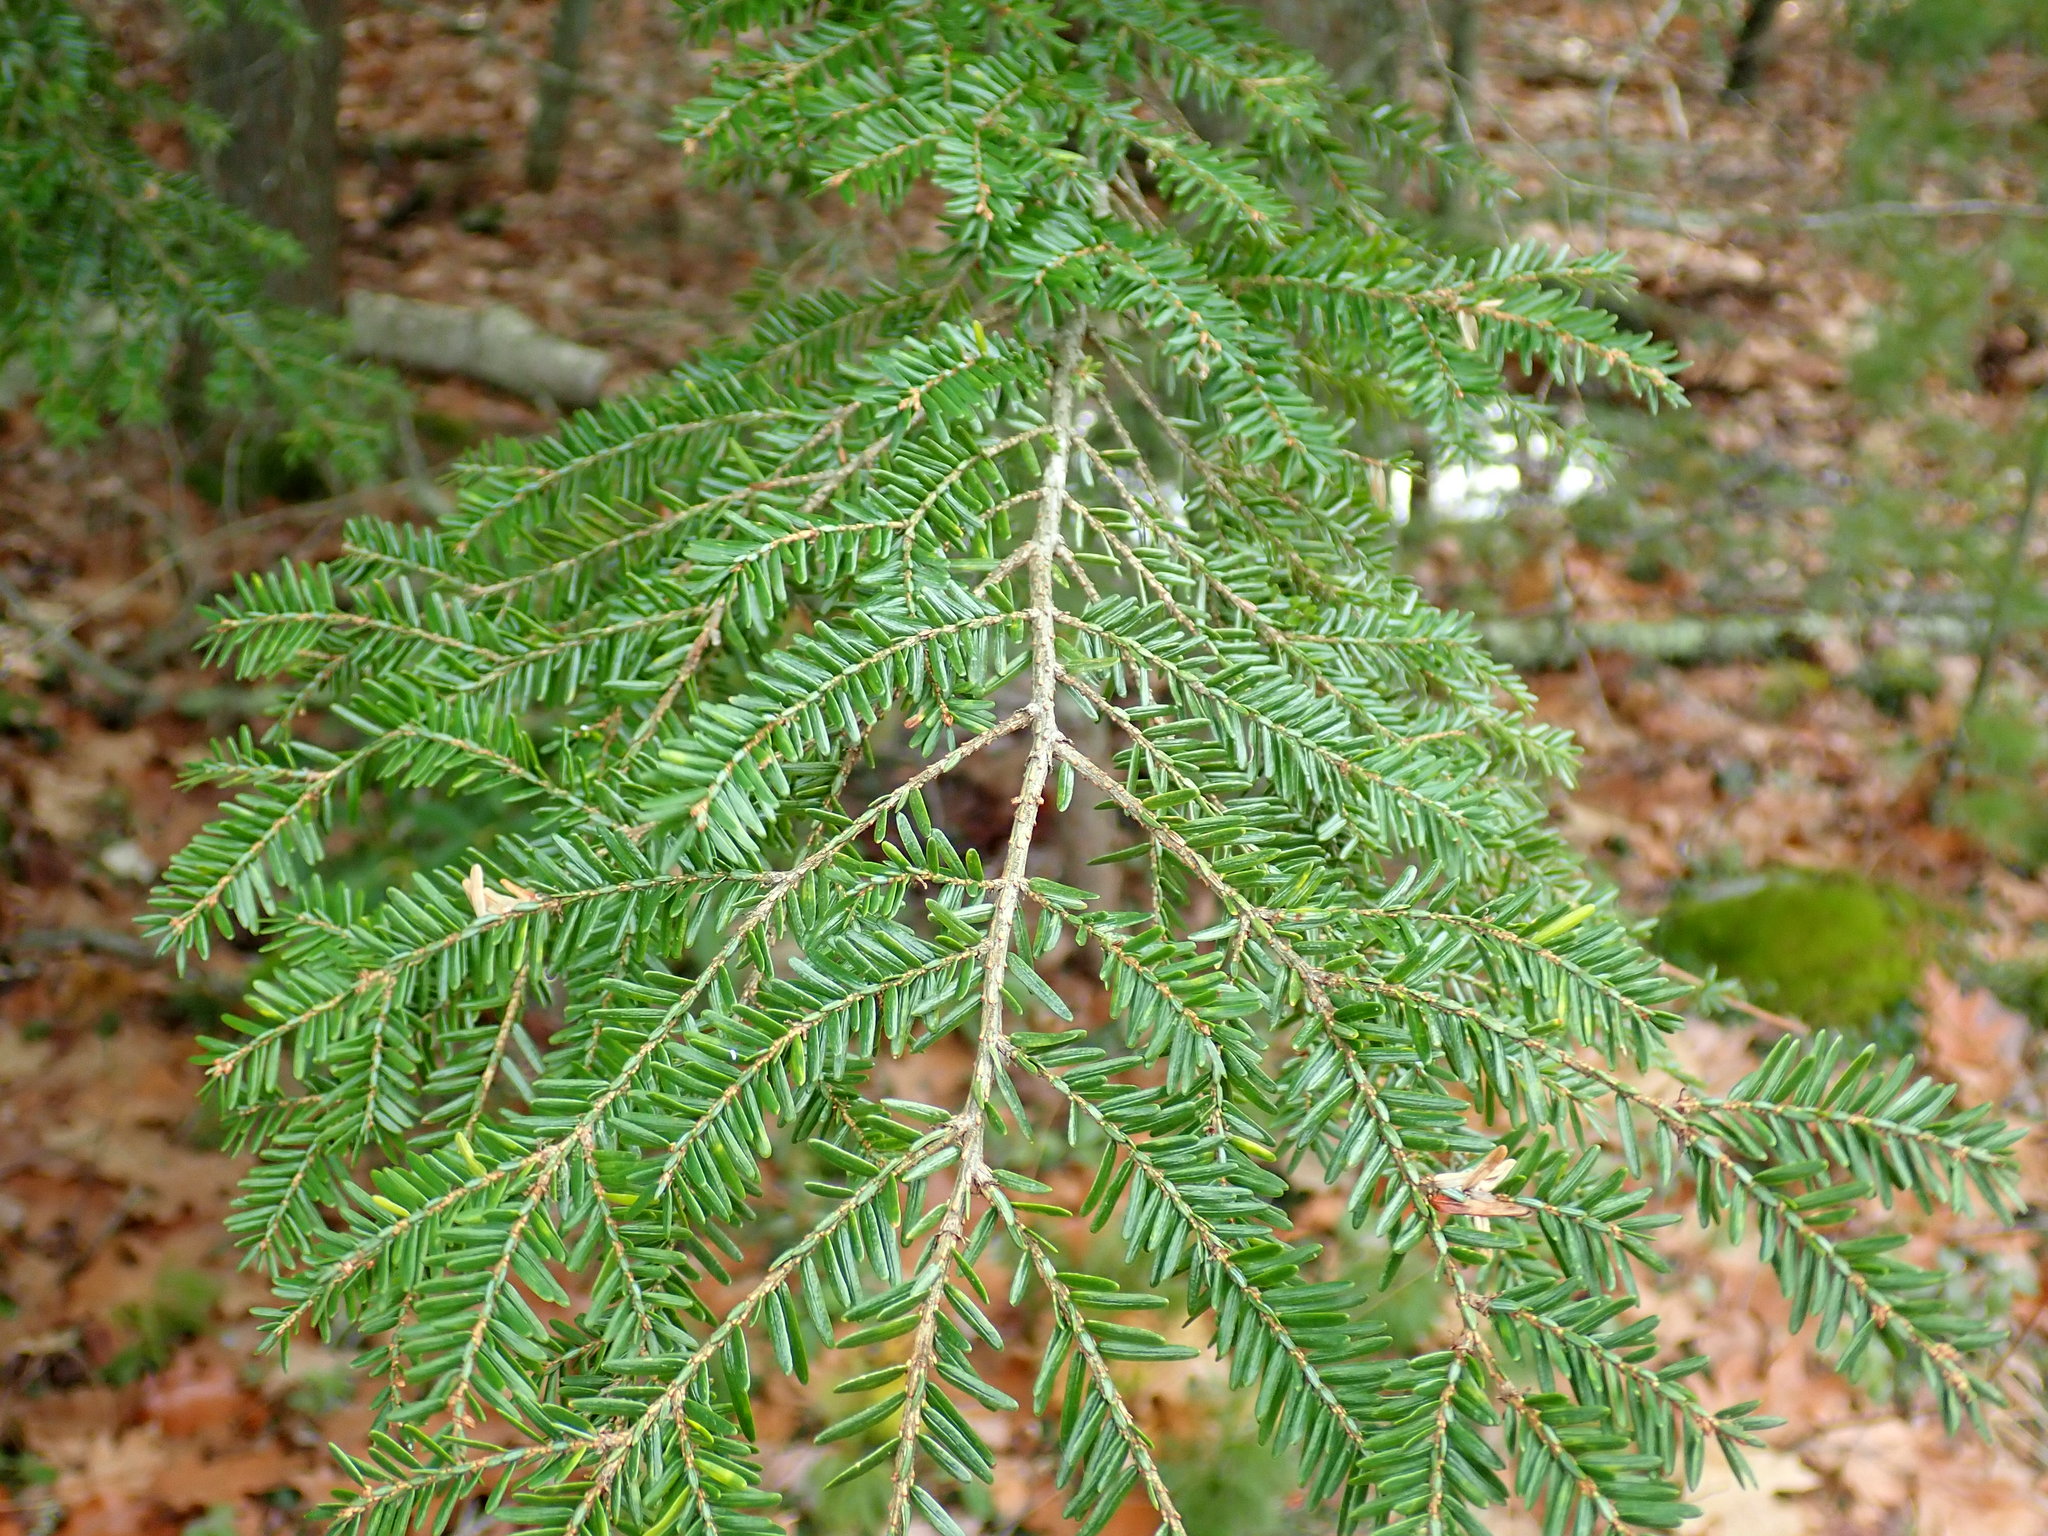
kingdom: Plantae
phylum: Tracheophyta
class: Pinopsida
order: Pinales
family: Pinaceae
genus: Tsuga
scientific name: Tsuga canadensis
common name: Eastern hemlock
